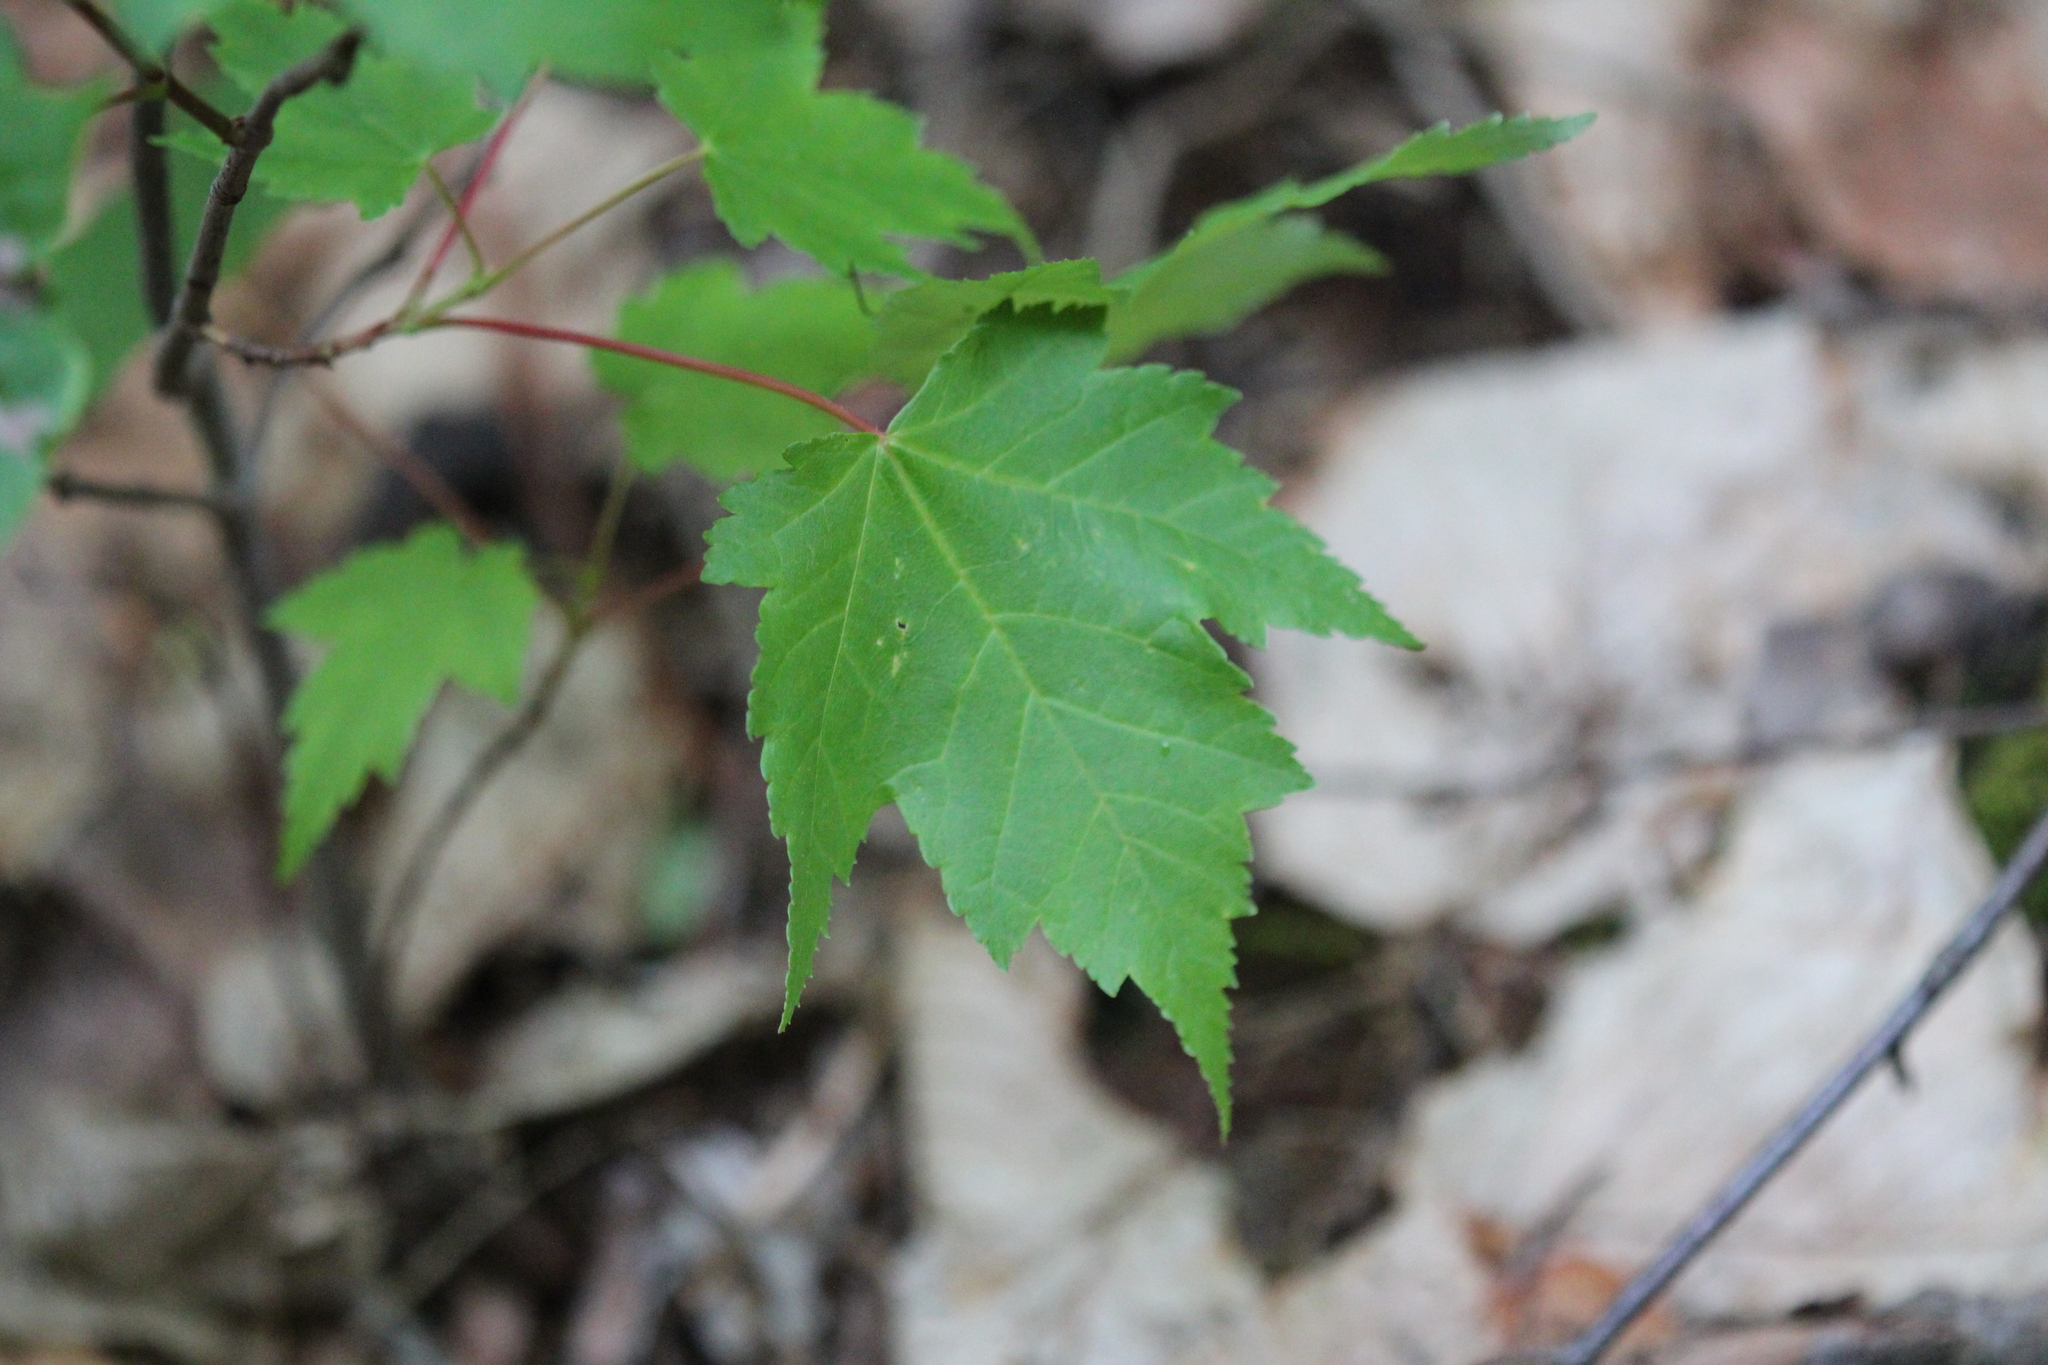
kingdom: Plantae
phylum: Tracheophyta
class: Magnoliopsida
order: Sapindales
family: Sapindaceae
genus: Acer
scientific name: Acer rubrum
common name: Red maple
